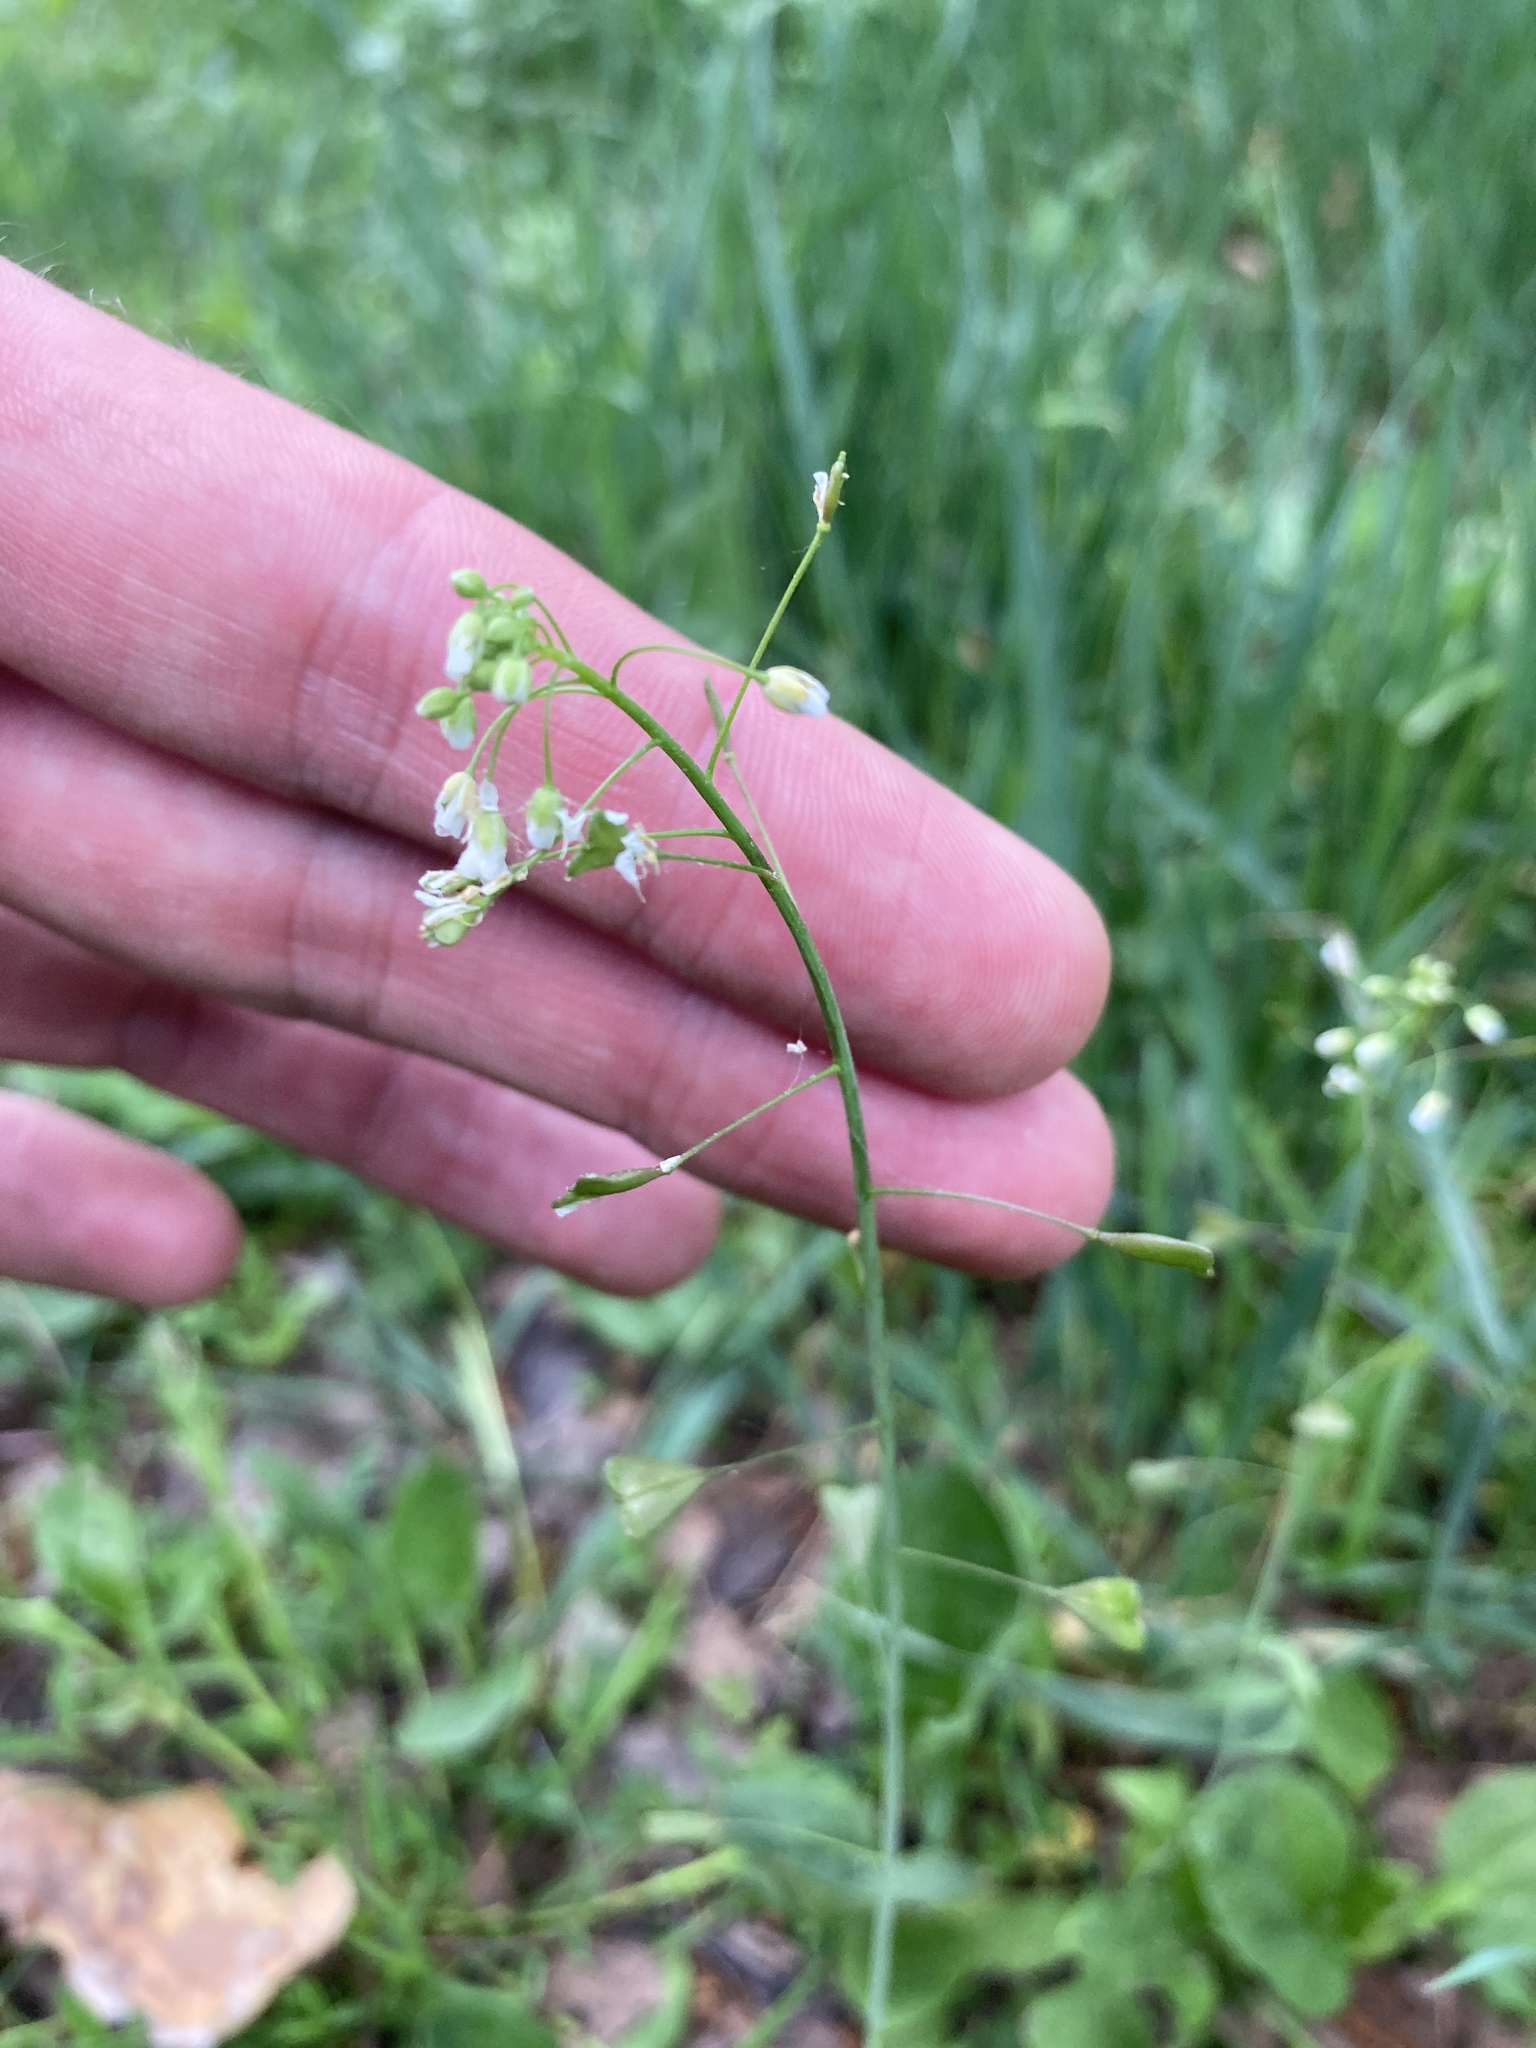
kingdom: Plantae
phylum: Tracheophyta
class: Magnoliopsida
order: Brassicales
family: Brassicaceae
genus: Capsella
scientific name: Capsella bursa-pastoris
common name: Shepherd's purse
